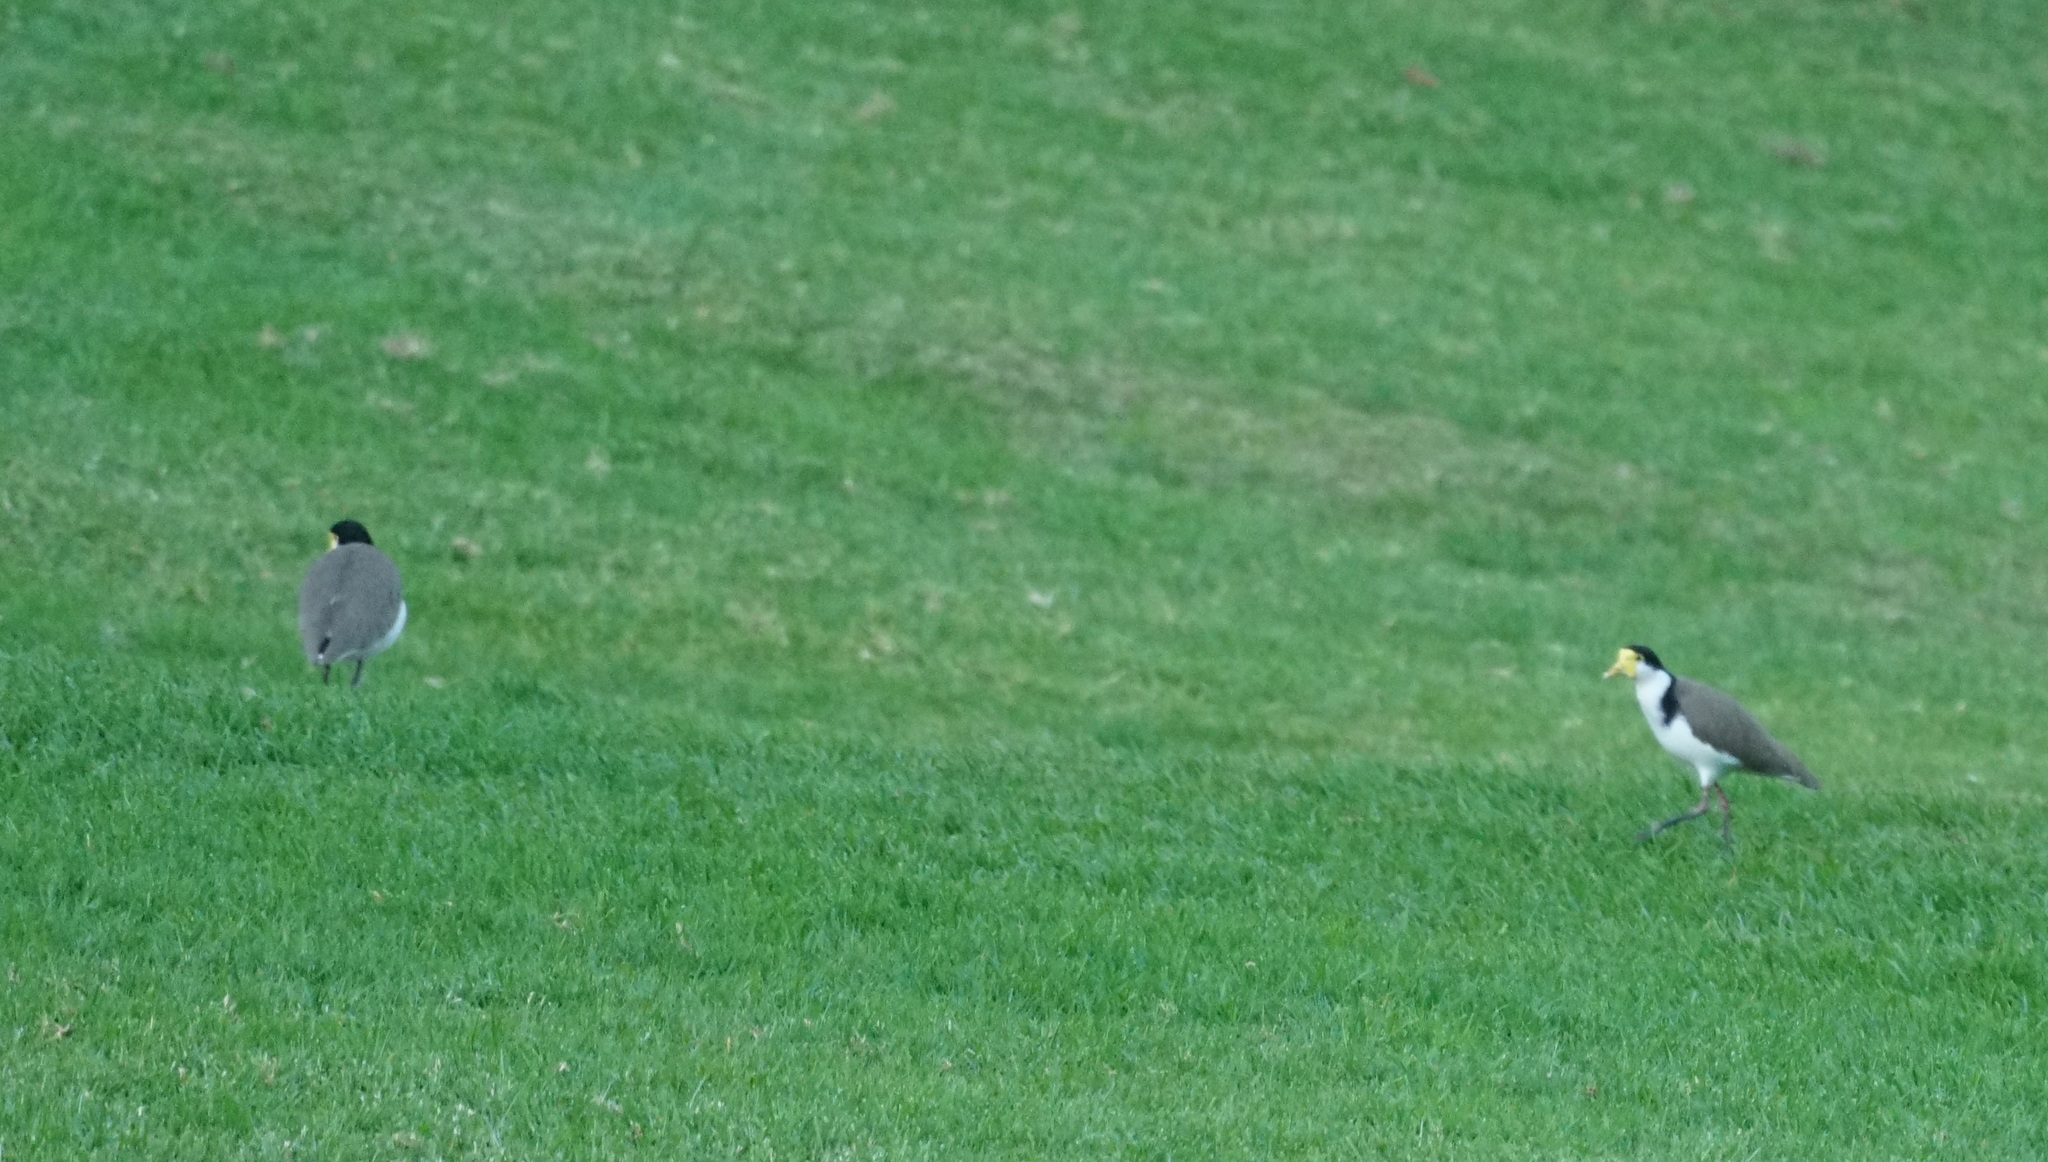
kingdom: Animalia
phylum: Chordata
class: Aves
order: Charadriiformes
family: Charadriidae
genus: Vanellus
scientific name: Vanellus miles
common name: Masked lapwing
